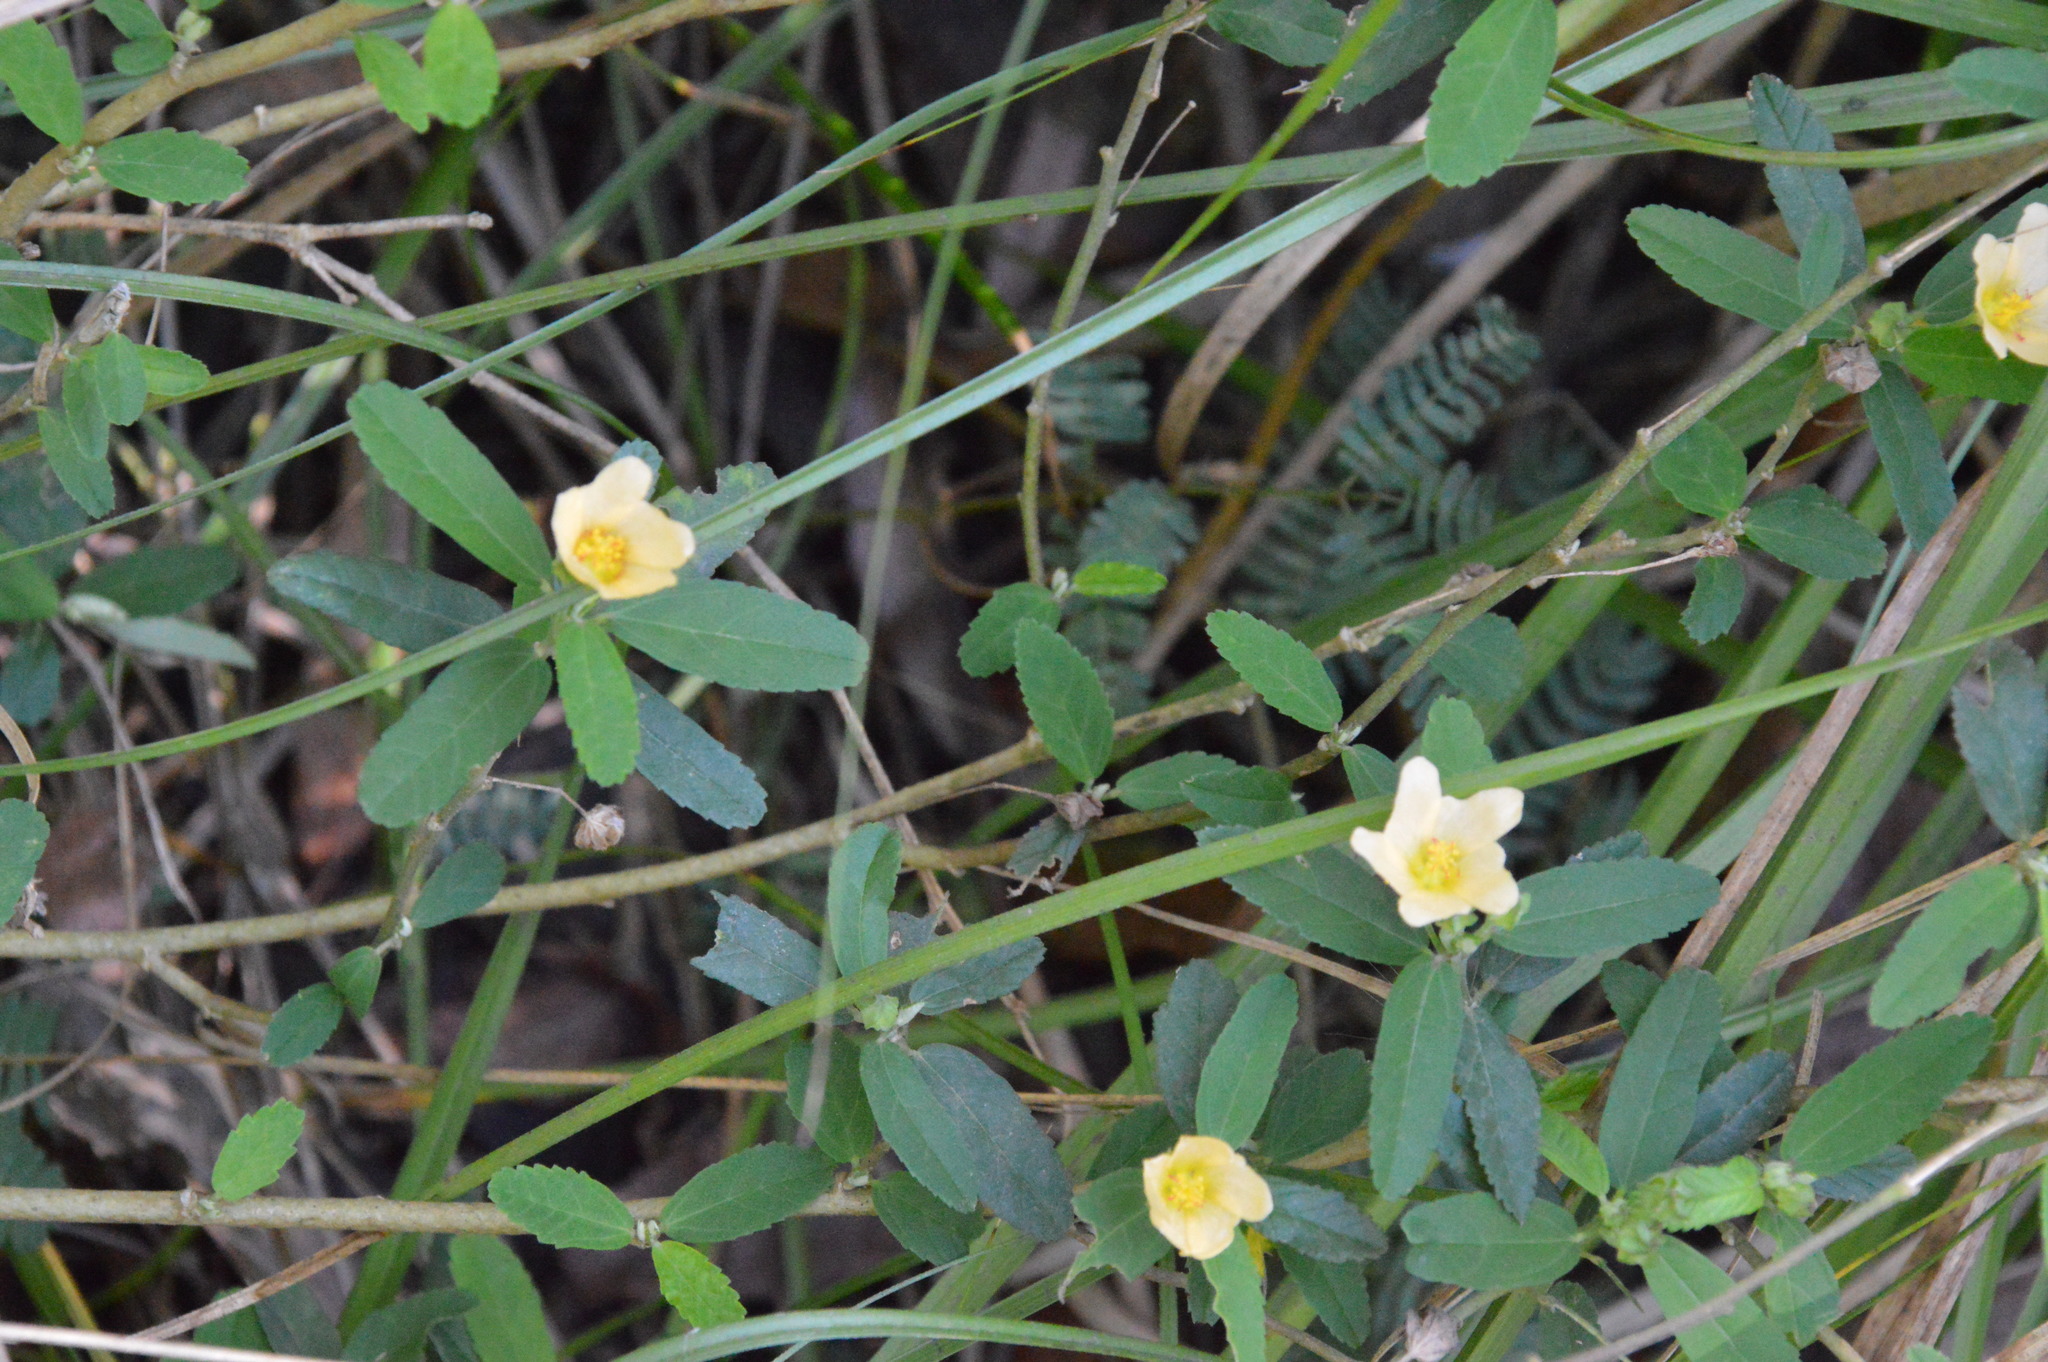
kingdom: Plantae
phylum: Tracheophyta
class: Magnoliopsida
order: Malvales
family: Malvaceae
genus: Sida
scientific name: Sida rhombifolia
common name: Queensland-hemp
